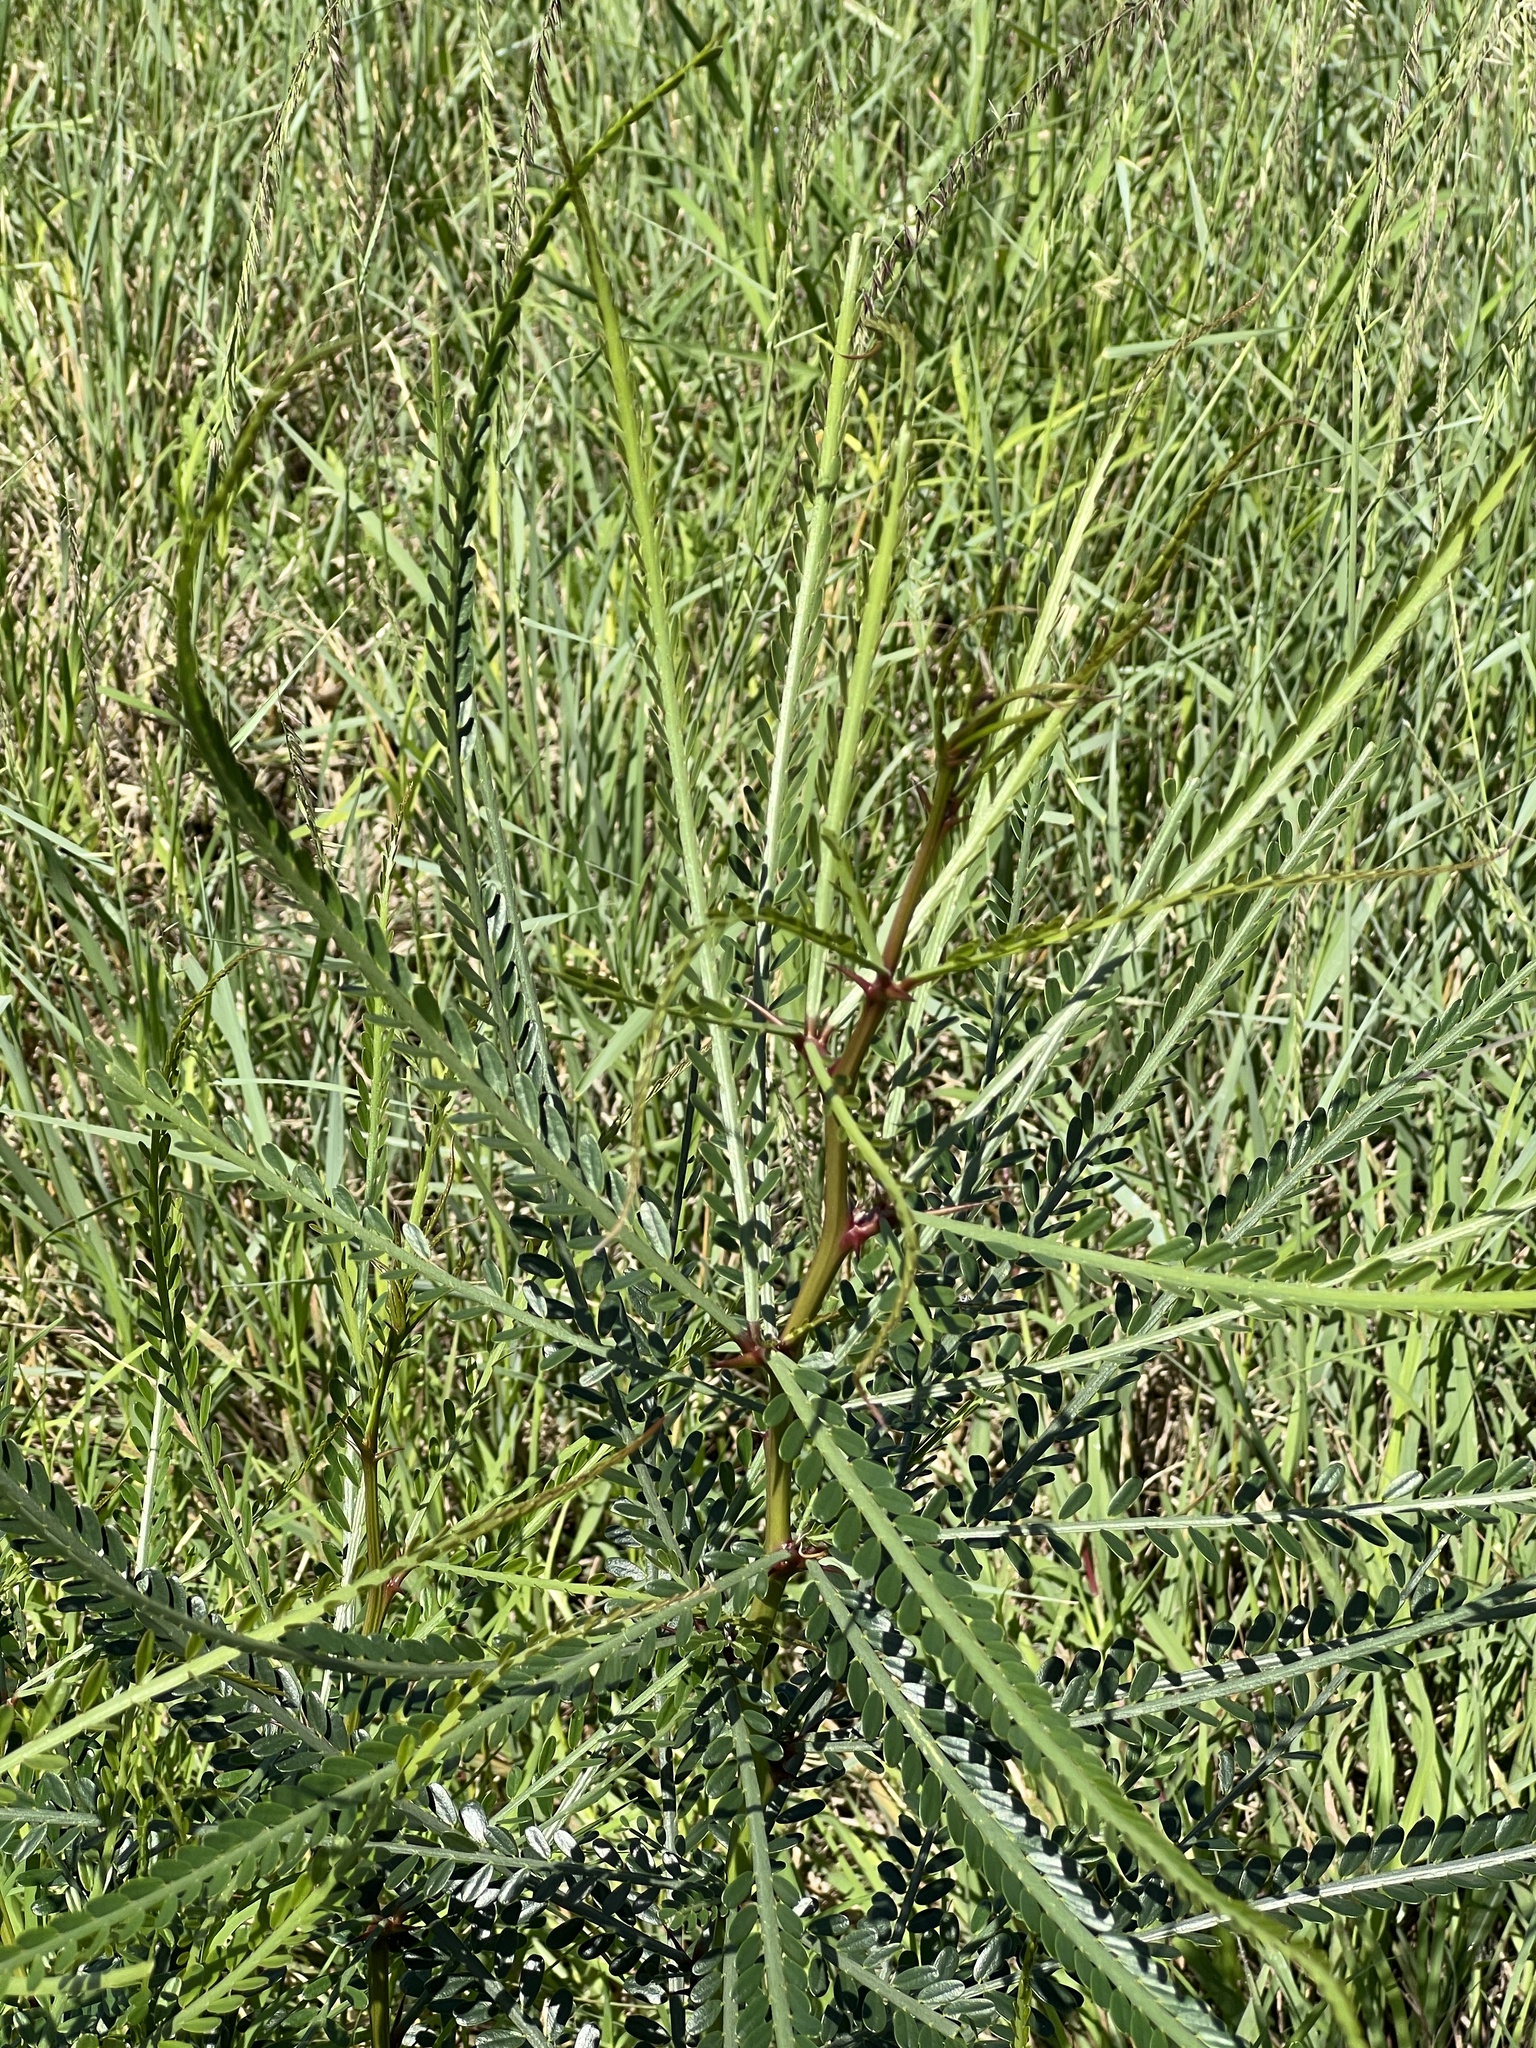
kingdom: Plantae
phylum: Tracheophyta
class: Magnoliopsida
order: Fabales
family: Fabaceae
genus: Parkinsonia
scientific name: Parkinsonia aculeata
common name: Jerusalem thorn
